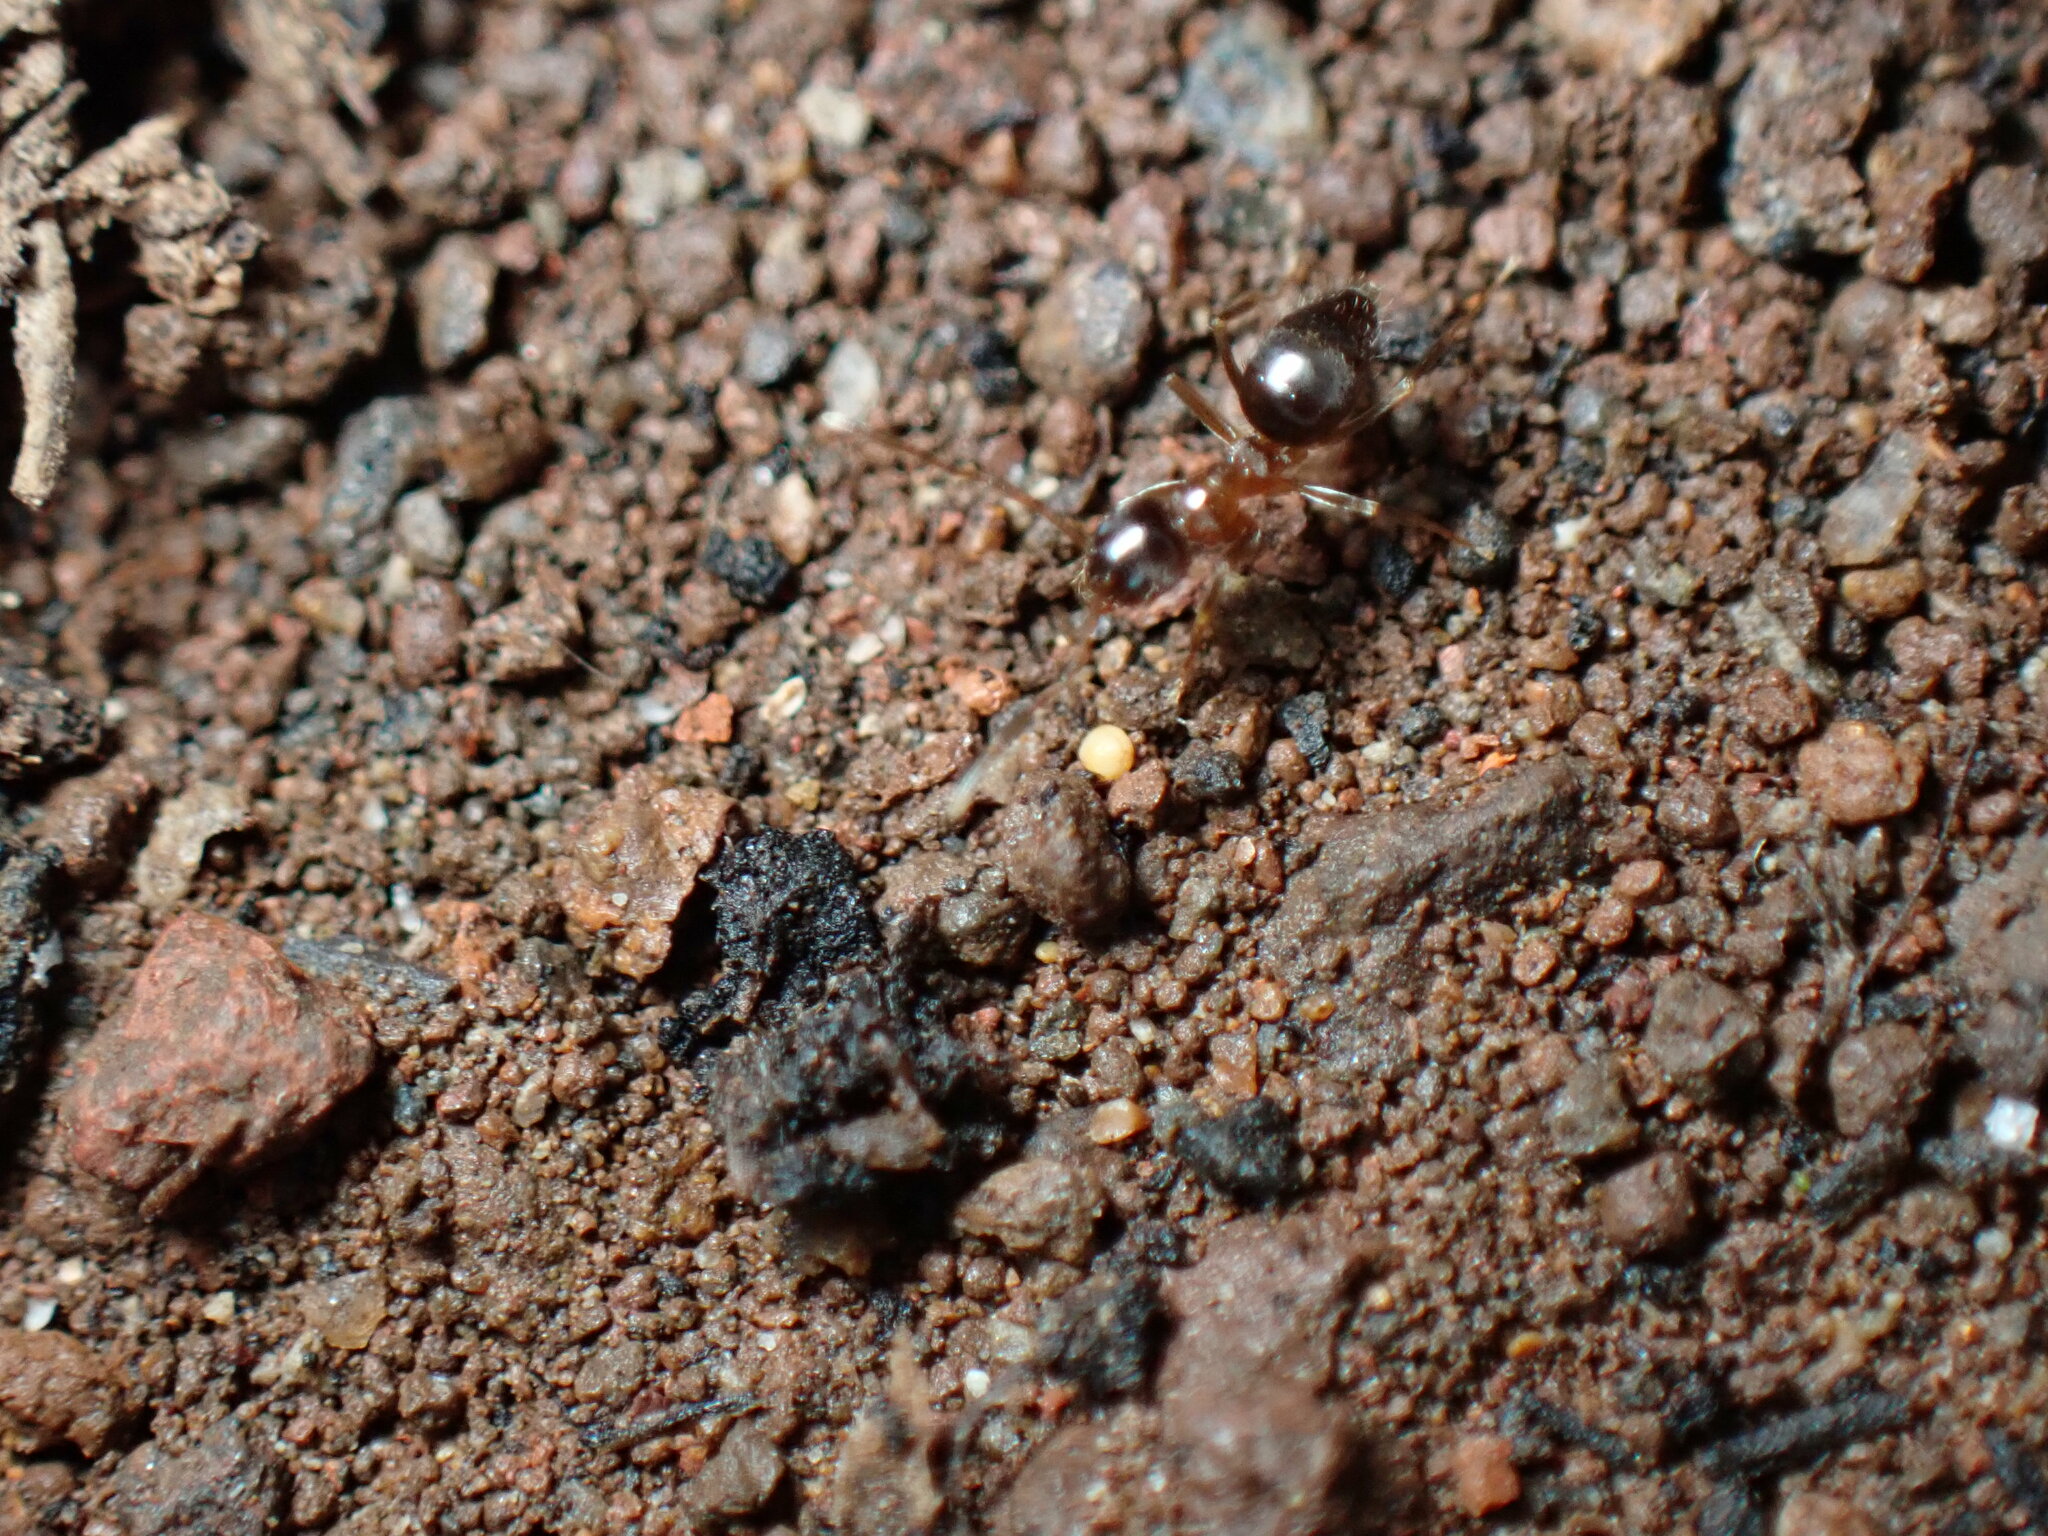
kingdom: Animalia
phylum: Arthropoda
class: Insecta
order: Hymenoptera
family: Formicidae
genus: Paratrechina
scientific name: Paratrechina jaegerskioeldi
